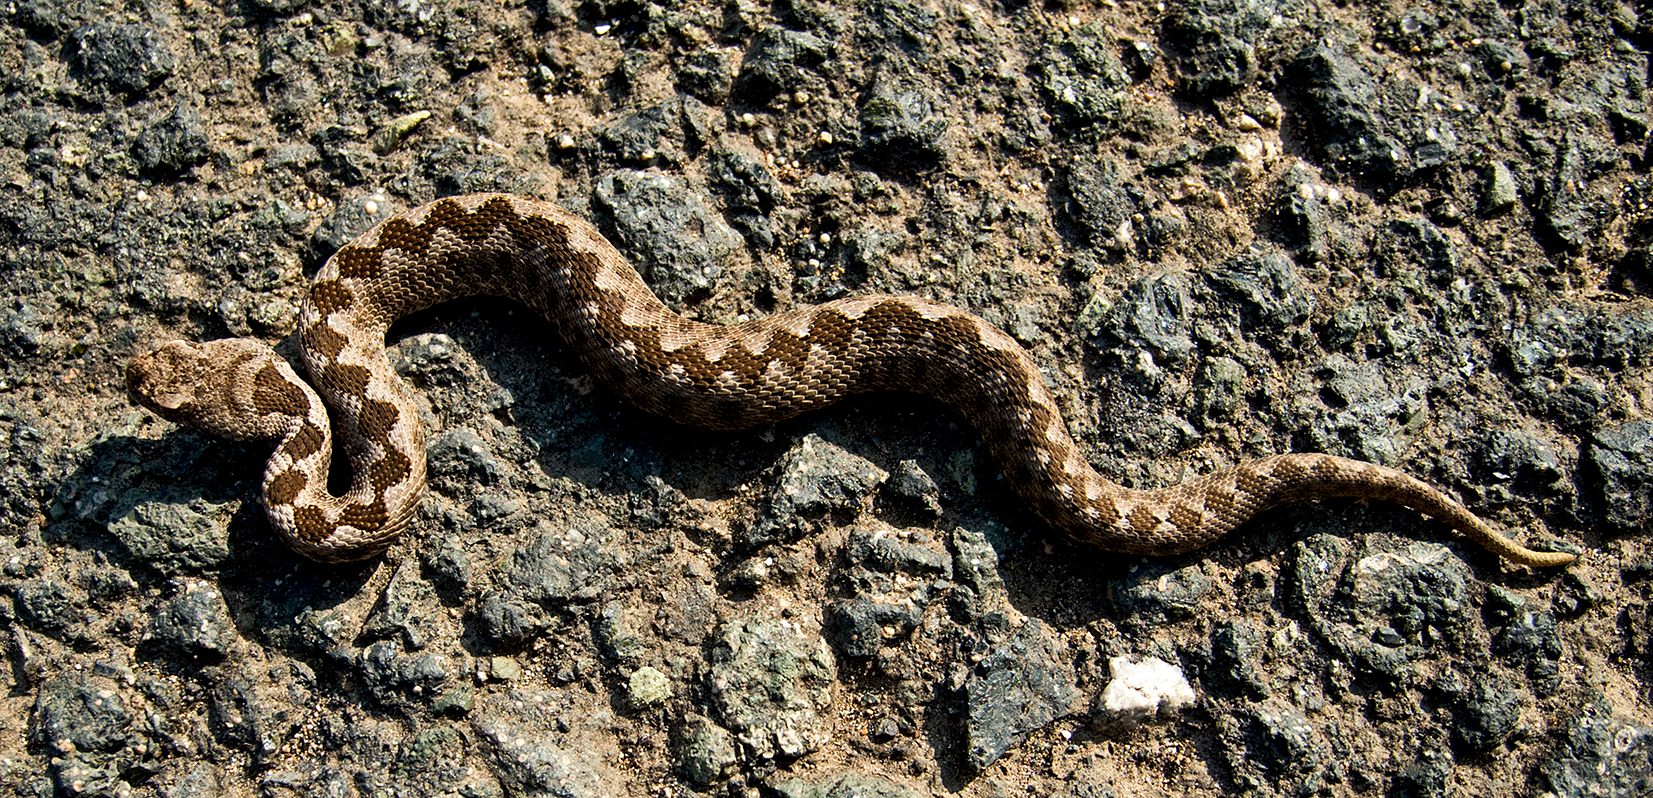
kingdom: Animalia
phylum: Chordata
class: Squamata
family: Viperidae
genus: Vipera
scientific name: Vipera ammodytes
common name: Sand viper
